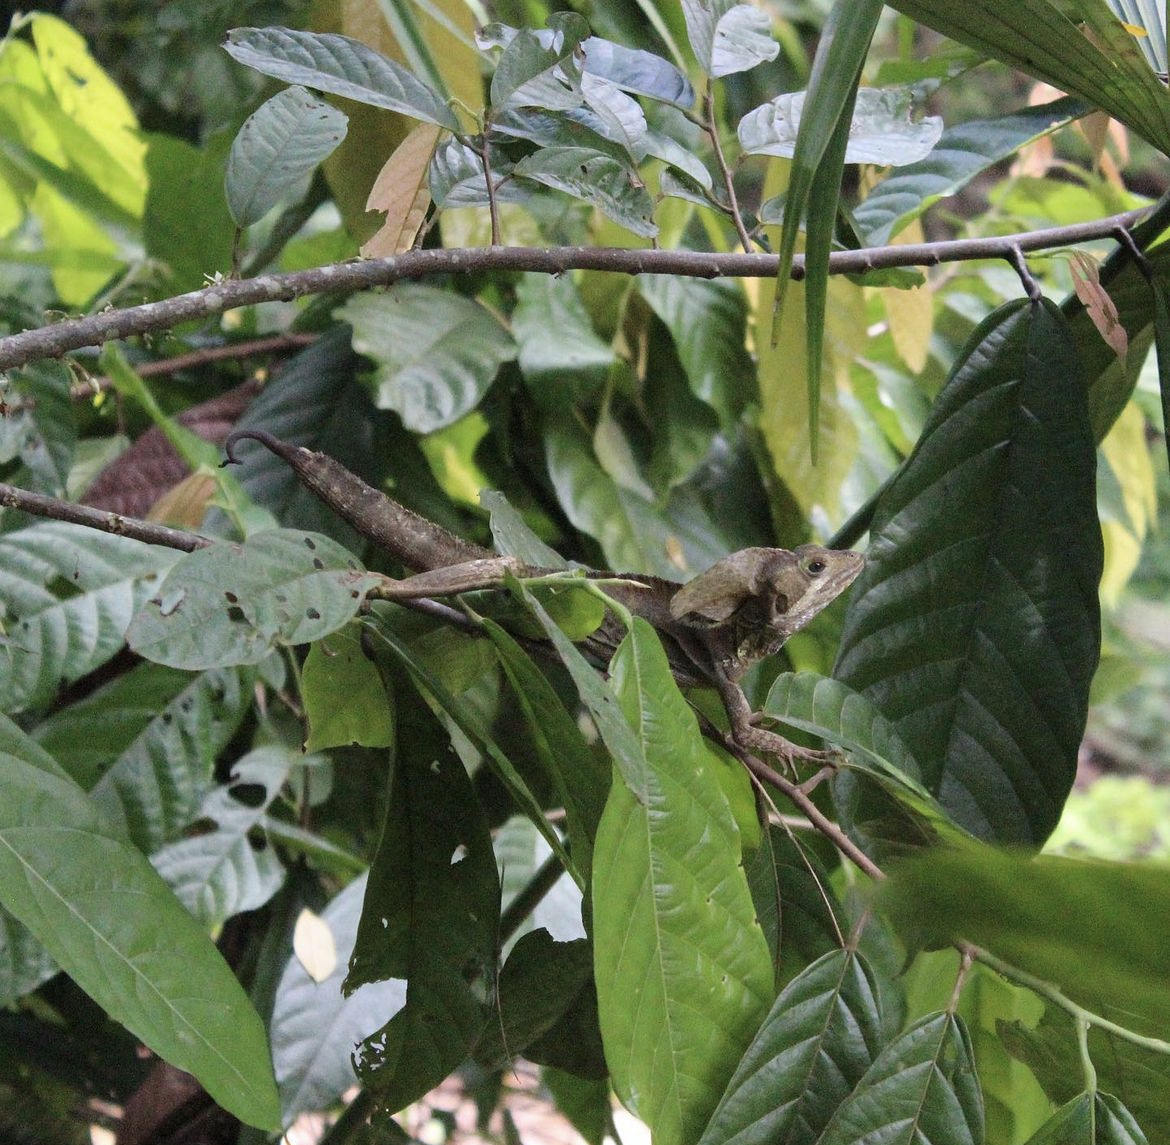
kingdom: Animalia
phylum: Chordata
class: Squamata
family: Corytophanidae
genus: Basiliscus
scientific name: Basiliscus vittatus
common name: Brown basilisk
